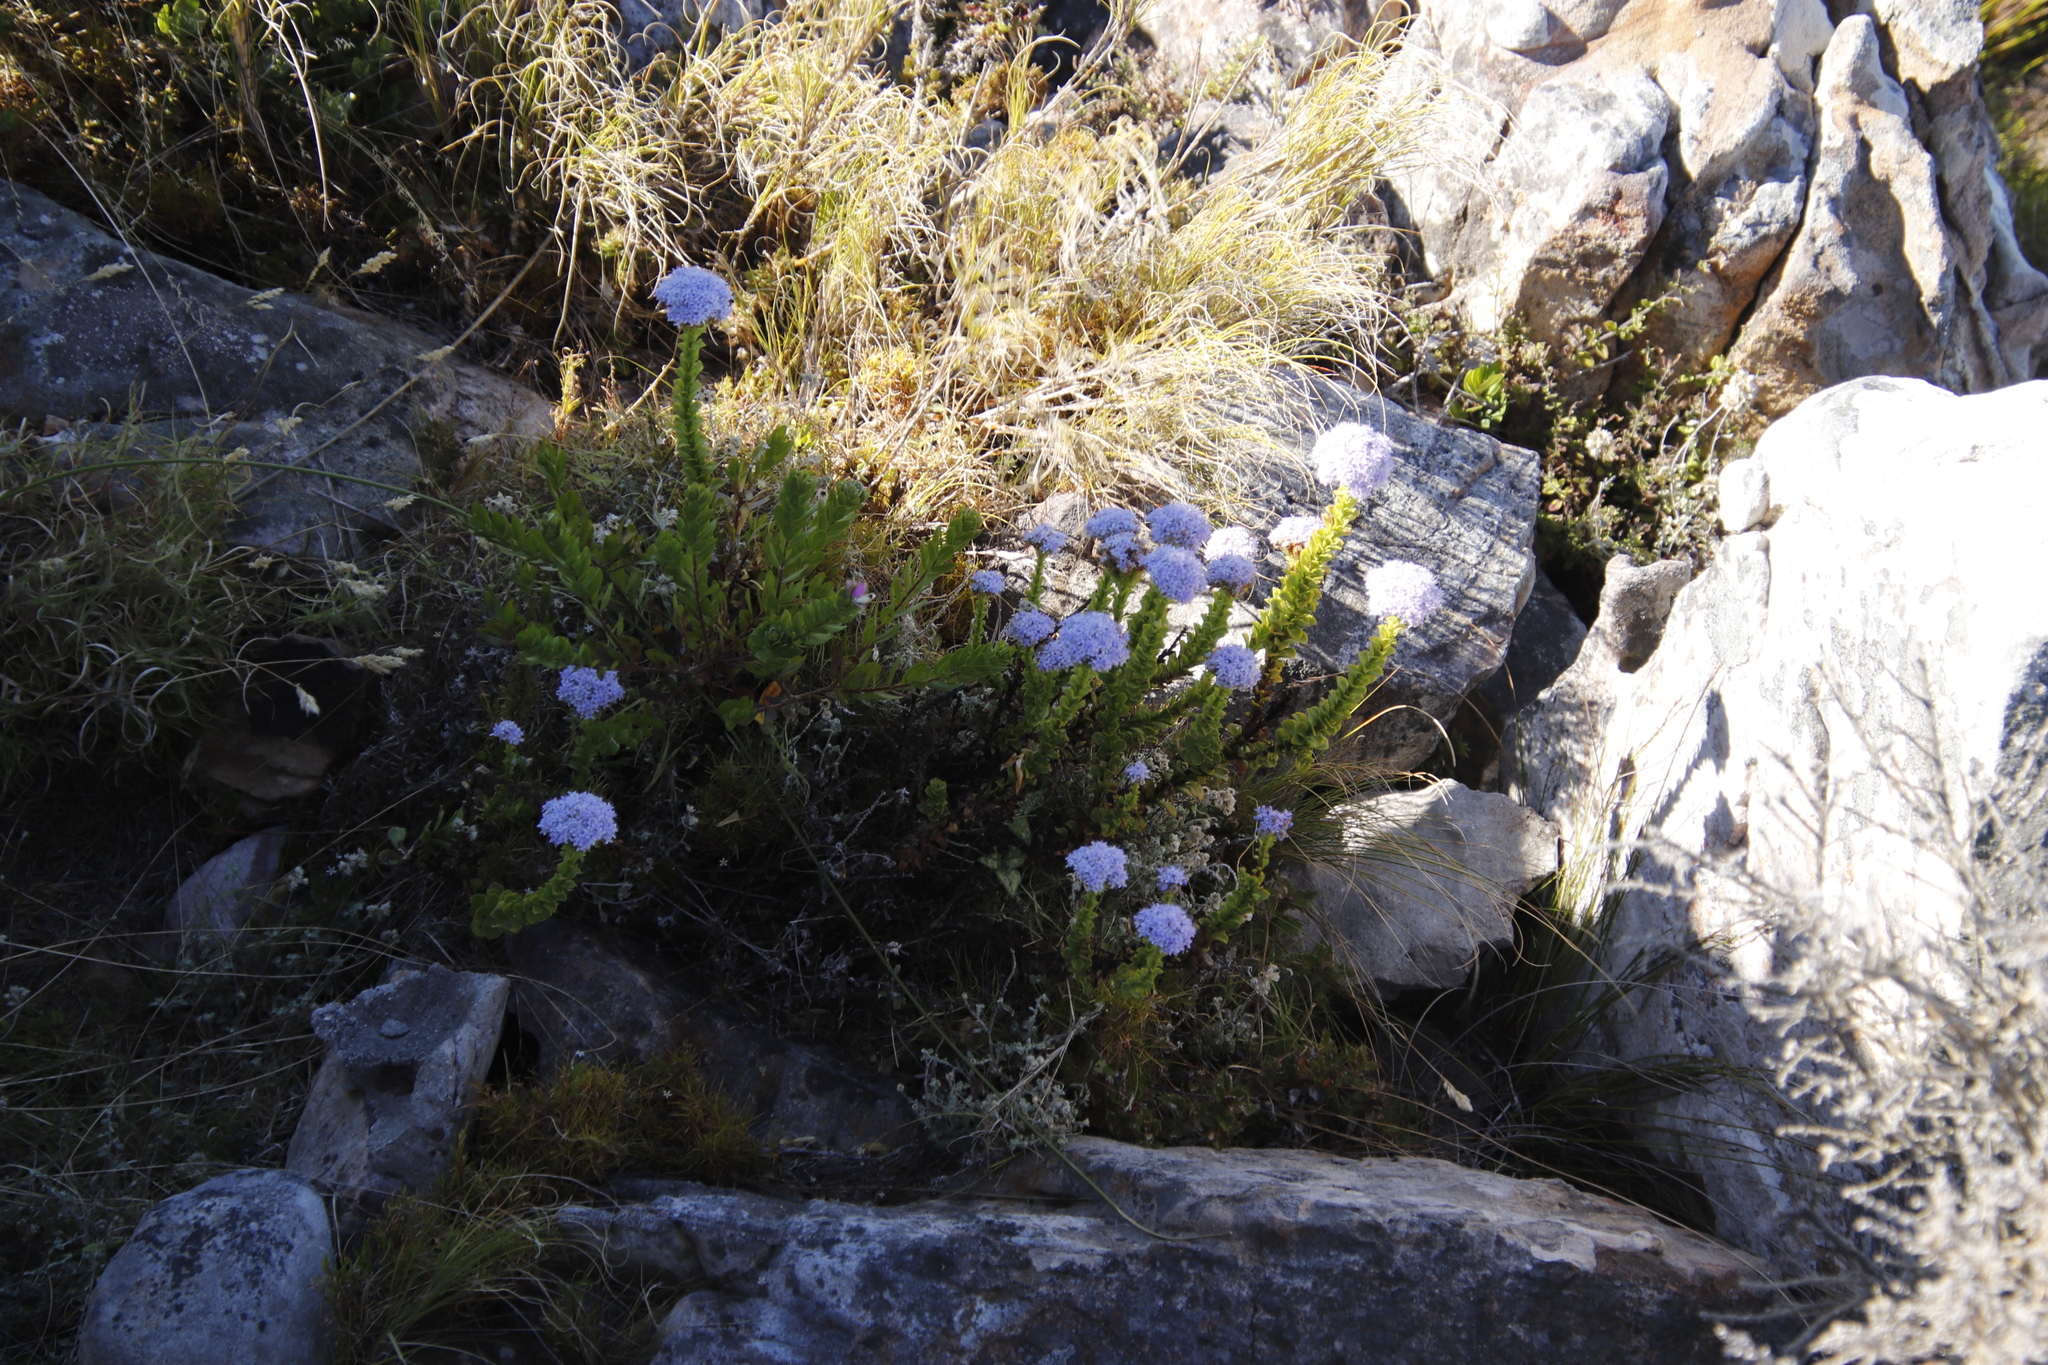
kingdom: Plantae
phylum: Tracheophyta
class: Magnoliopsida
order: Lamiales
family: Scrophulariaceae
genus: Pseudoselago
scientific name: Pseudoselago serrata
